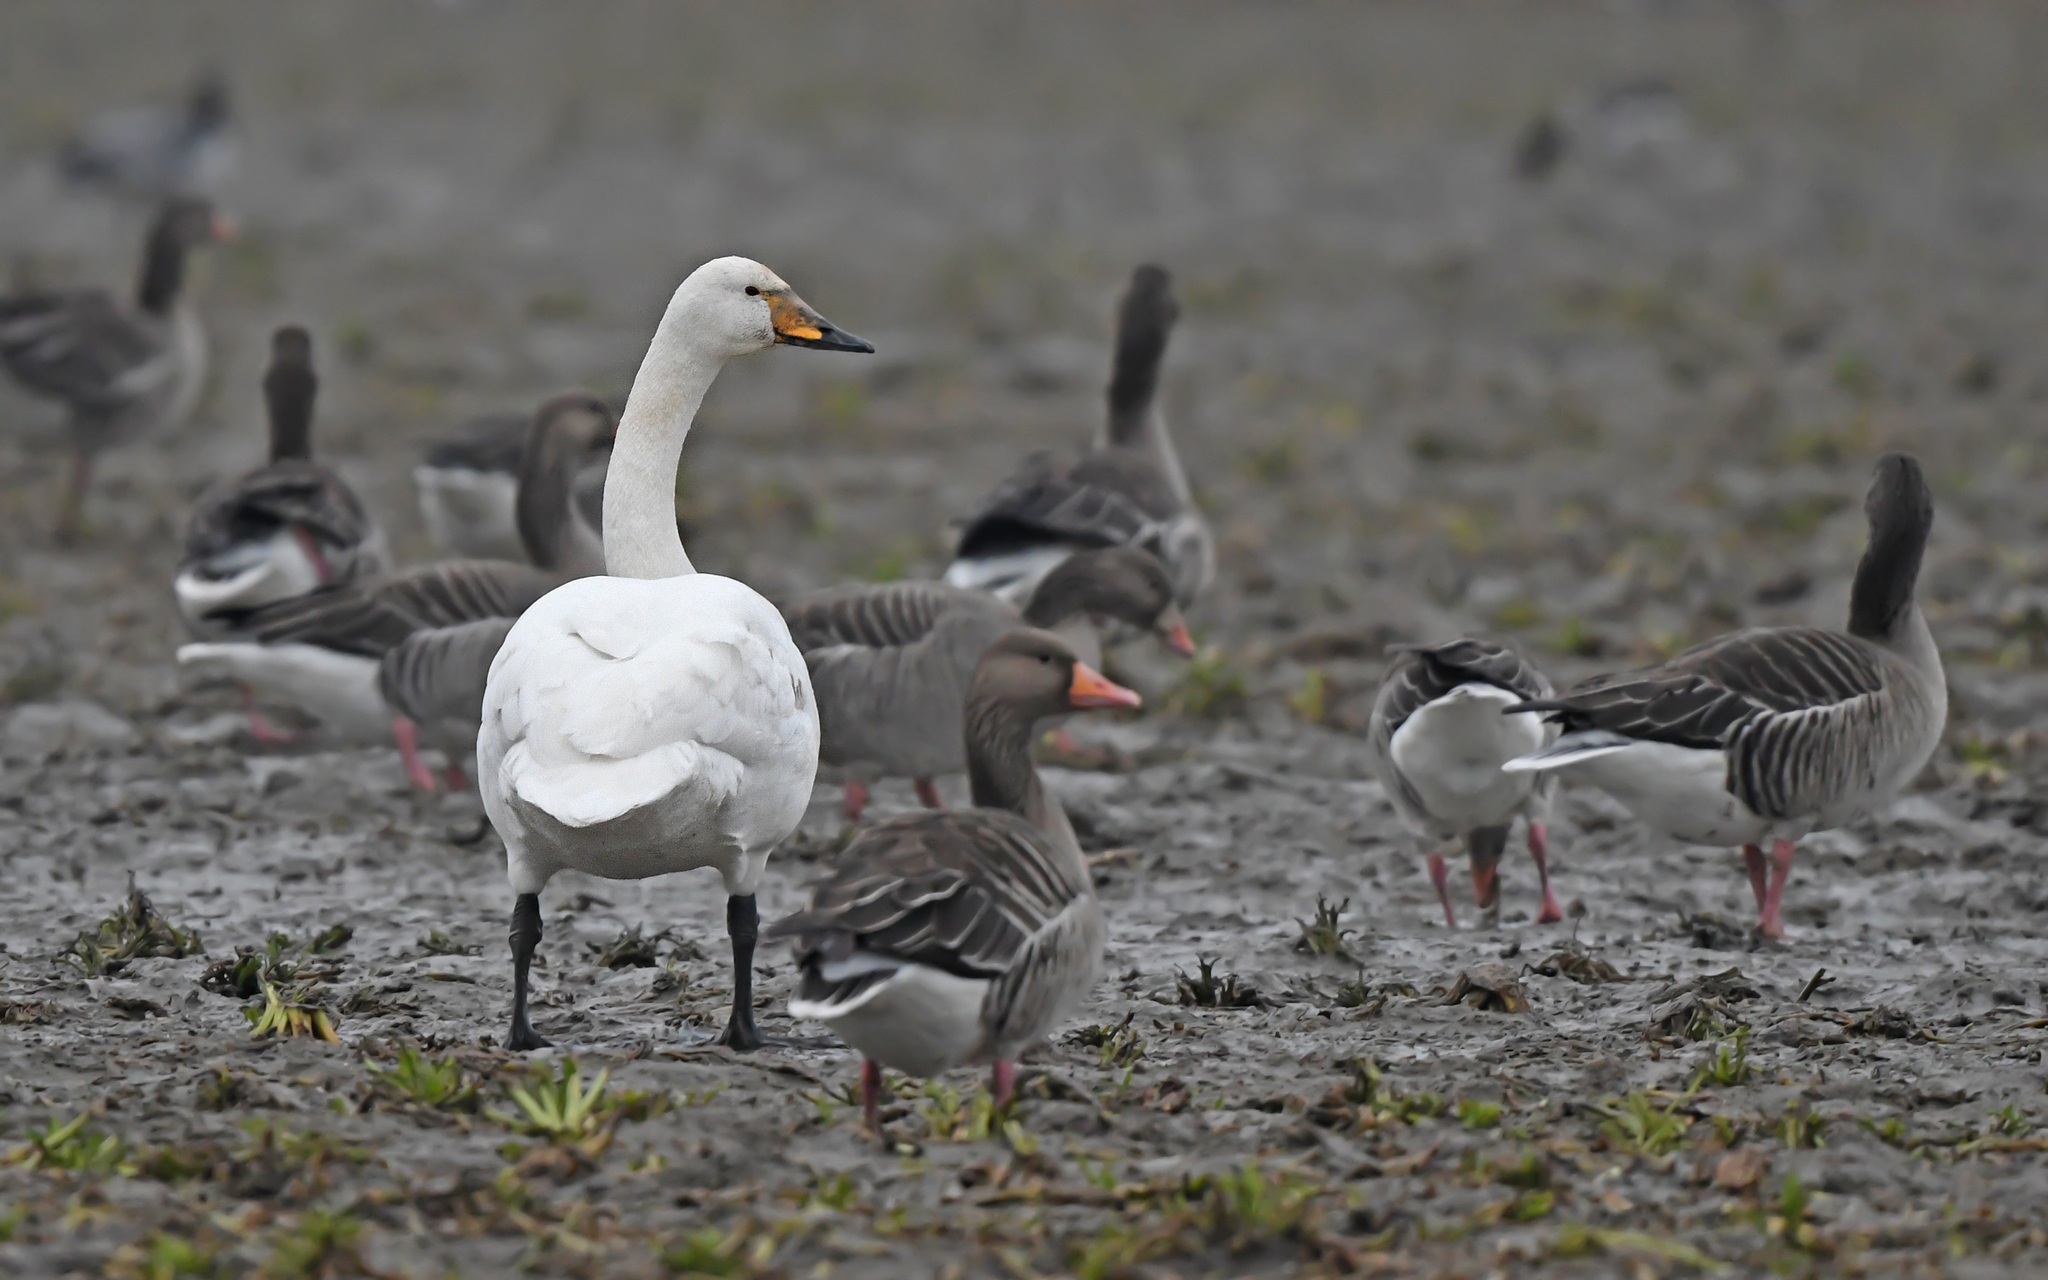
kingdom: Animalia
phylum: Chordata
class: Aves
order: Anseriformes
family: Anatidae
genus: Cygnus
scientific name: Cygnus cygnus
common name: Whooper swan
